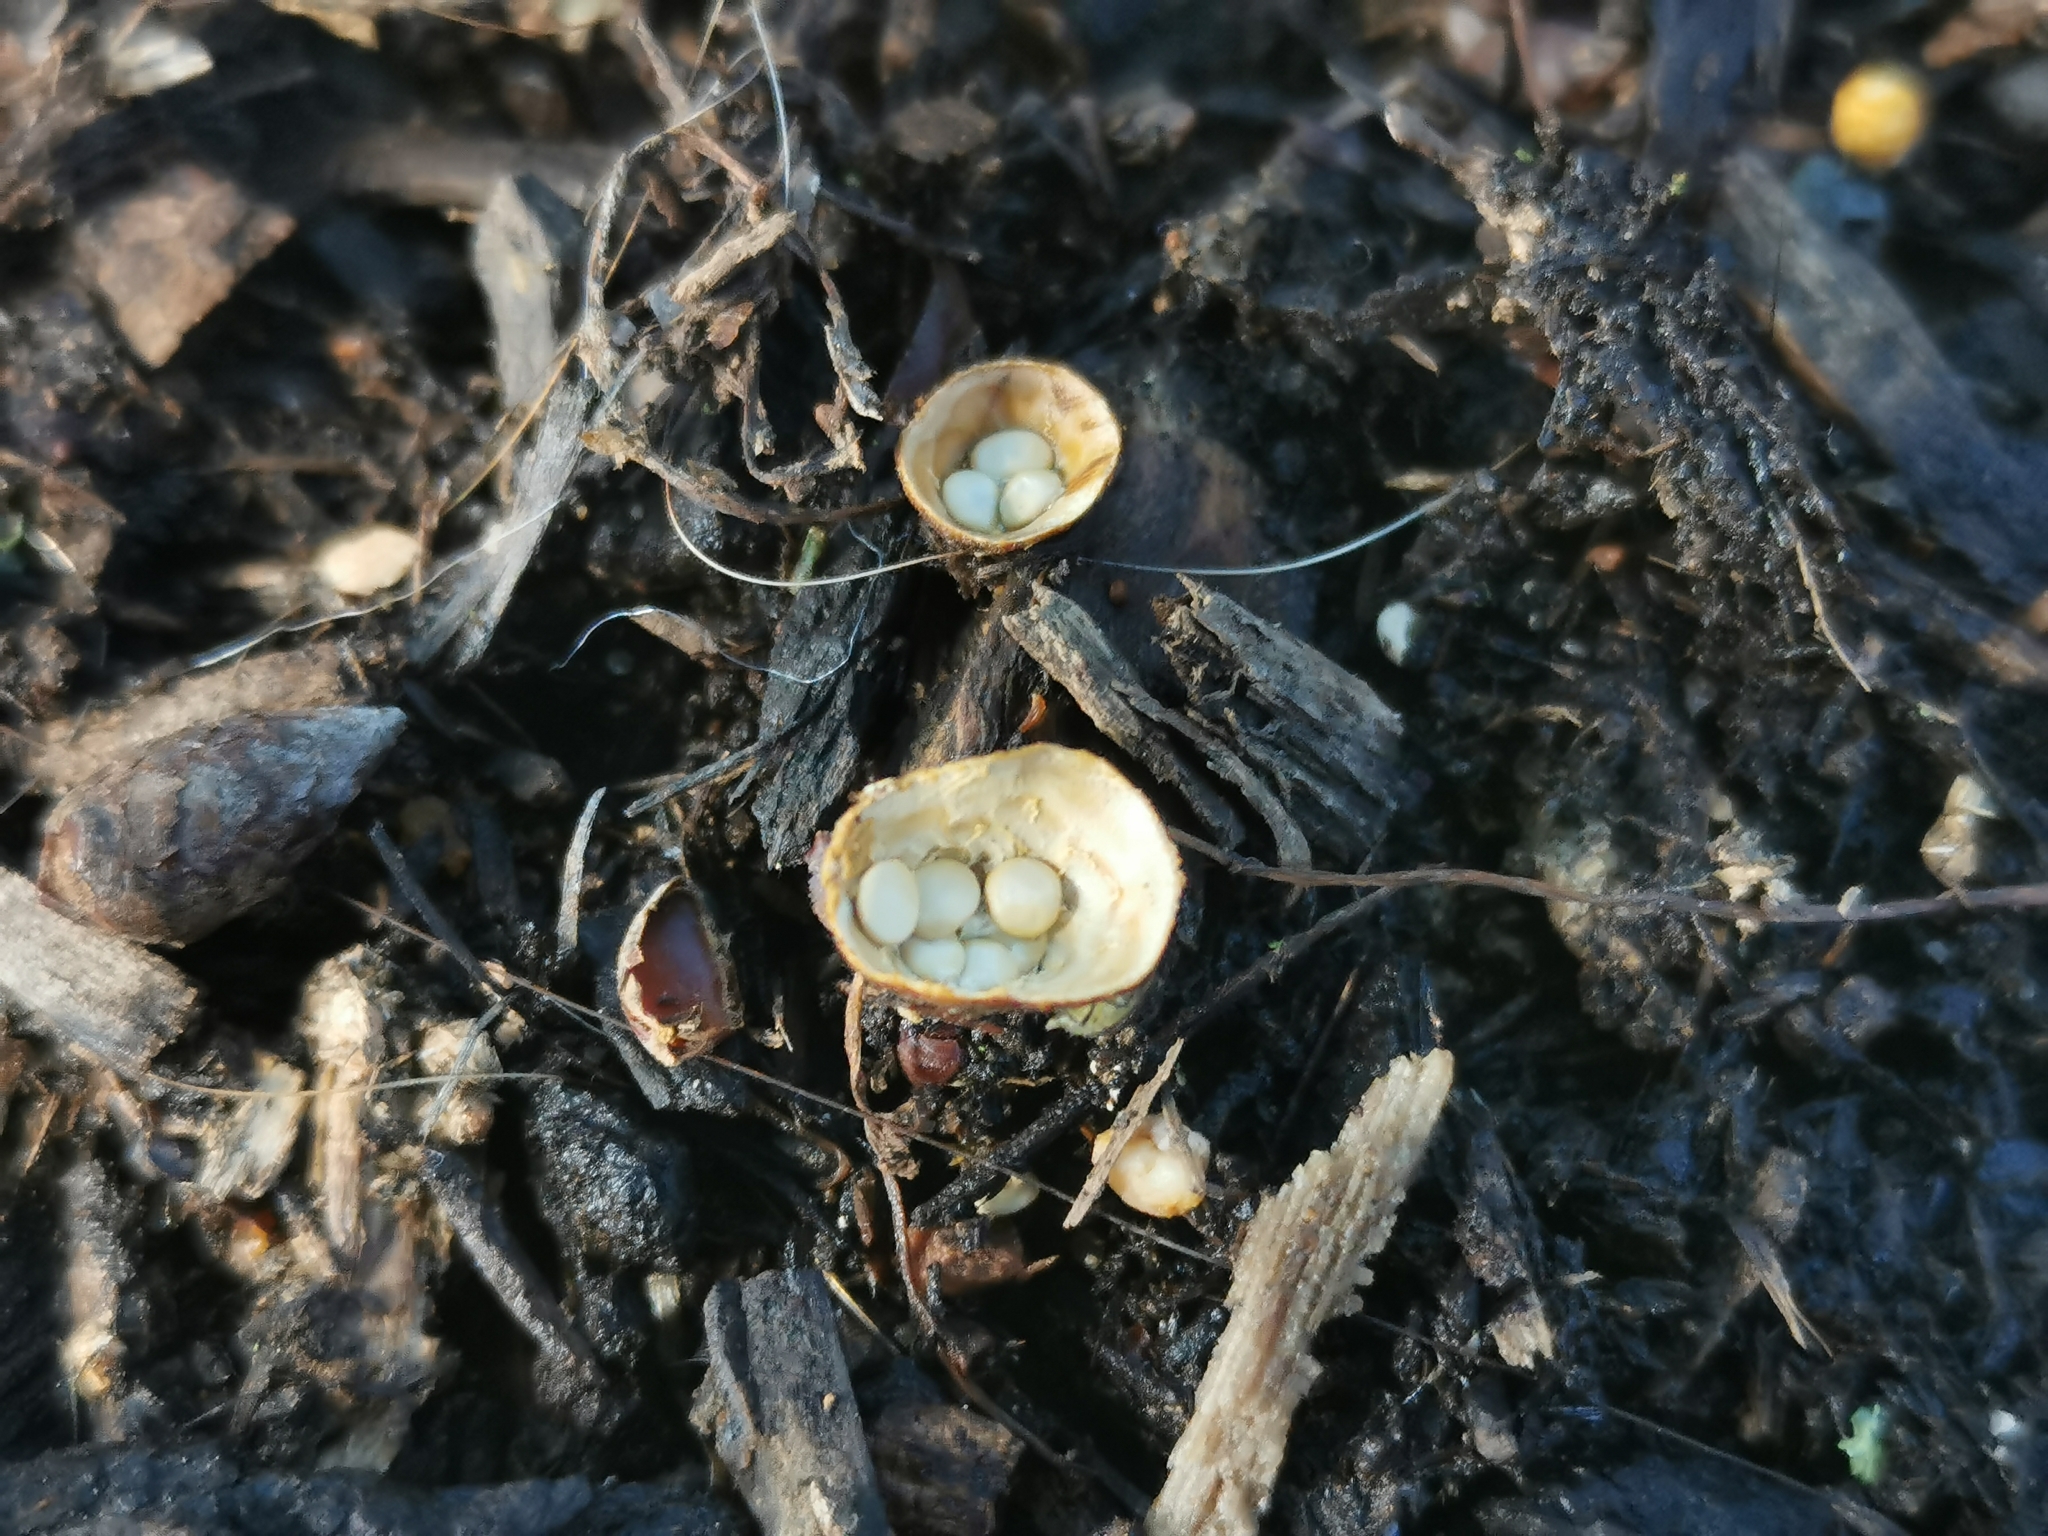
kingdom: Fungi
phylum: Basidiomycota
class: Agaricomycetes
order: Agaricales
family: Nidulariaceae
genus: Crucibulum
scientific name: Crucibulum laeve
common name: Common bird's nest
